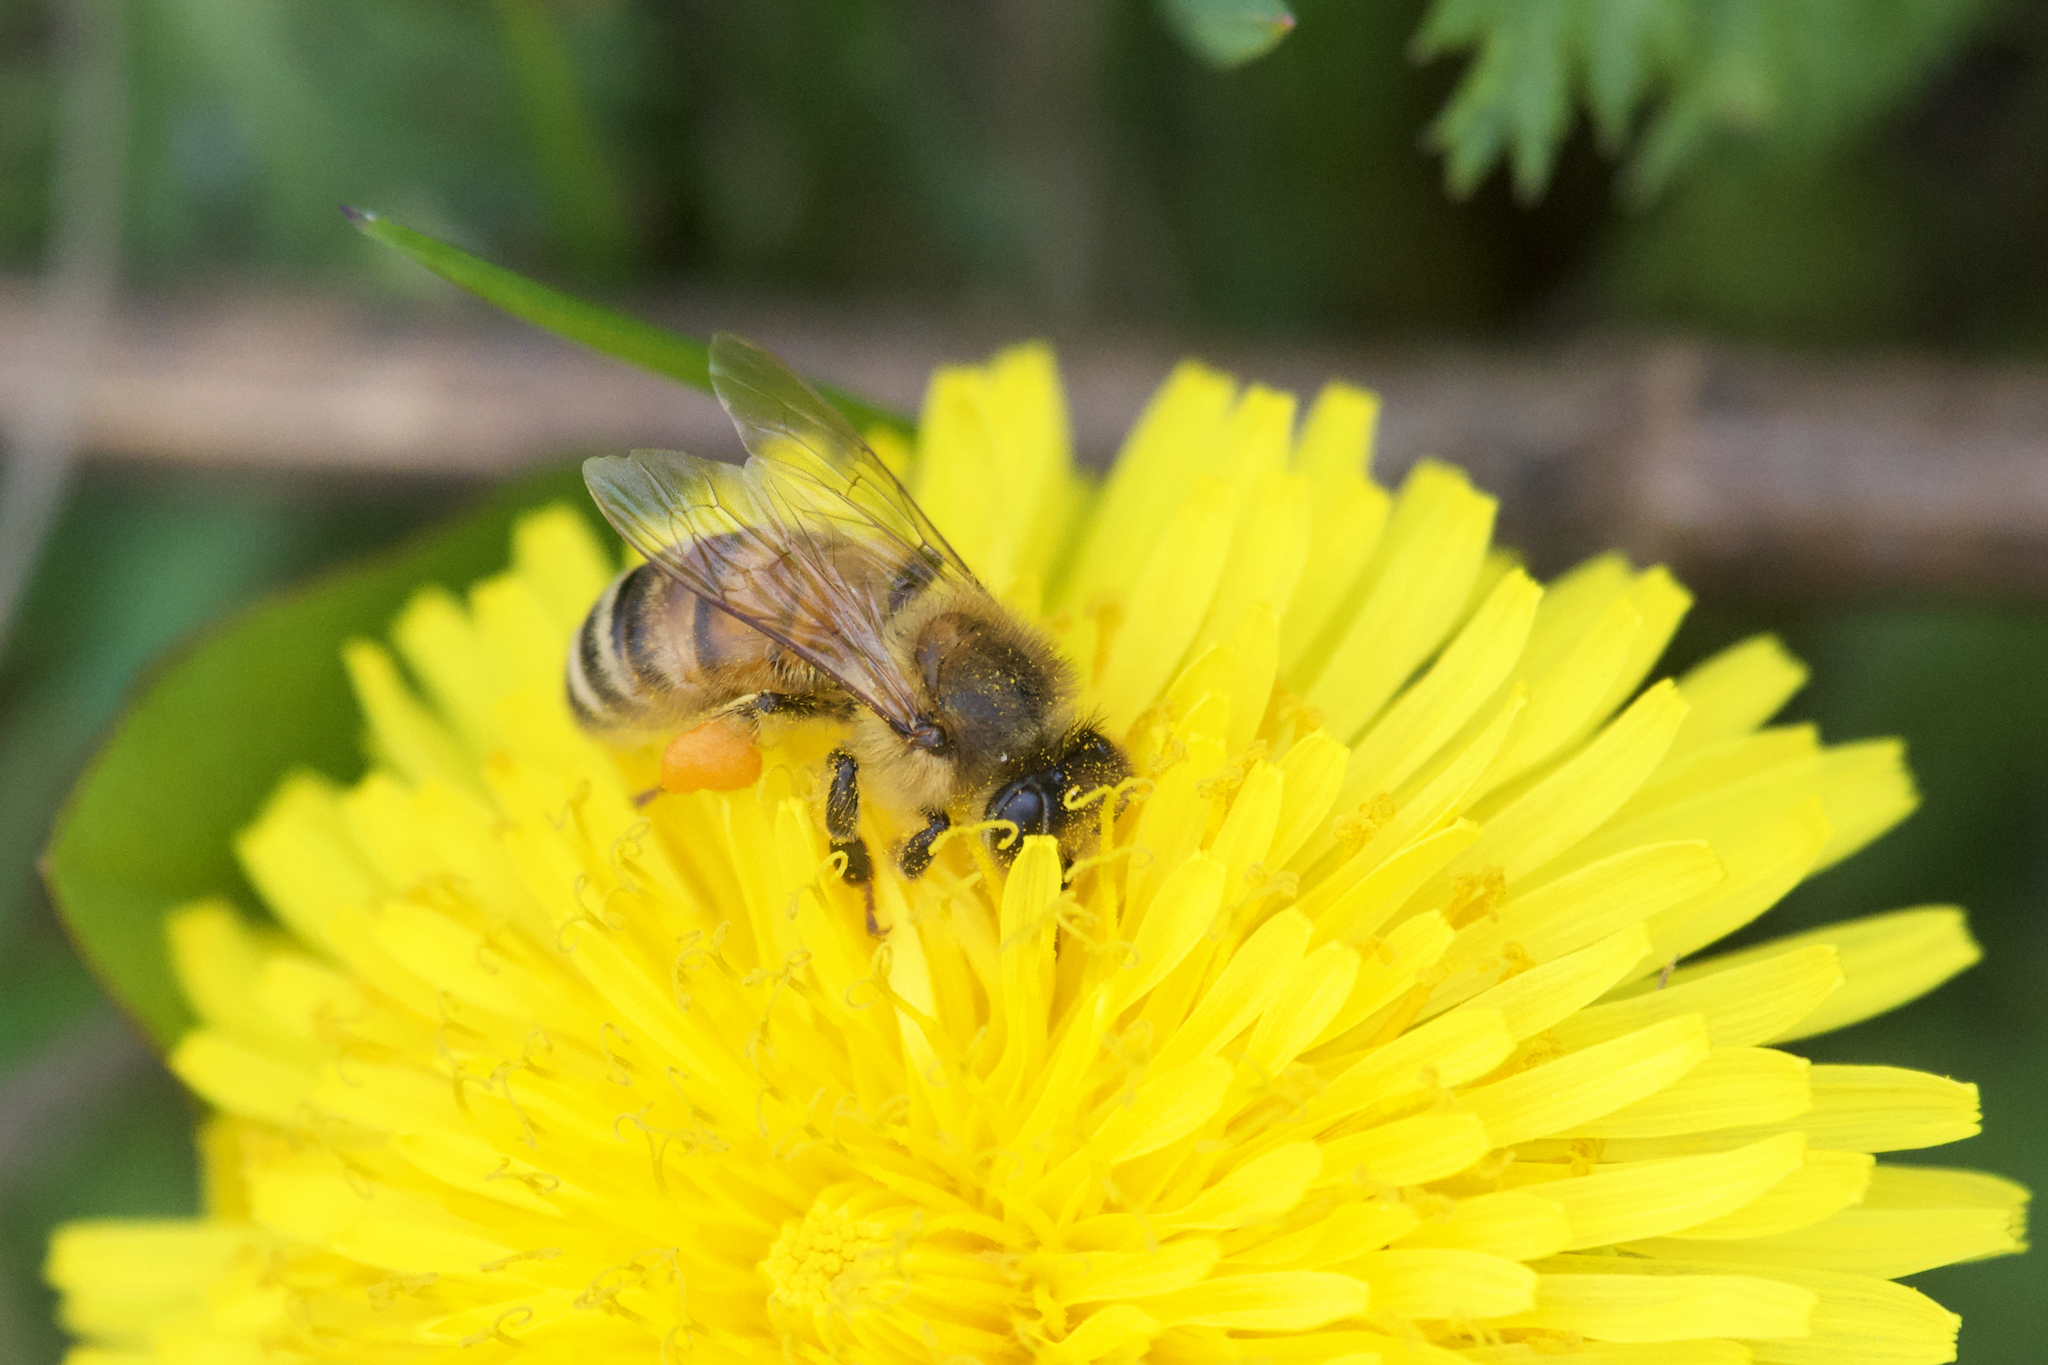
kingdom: Animalia
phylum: Arthropoda
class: Insecta
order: Hymenoptera
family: Apidae
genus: Apis
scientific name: Apis mellifera
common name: Honey bee
